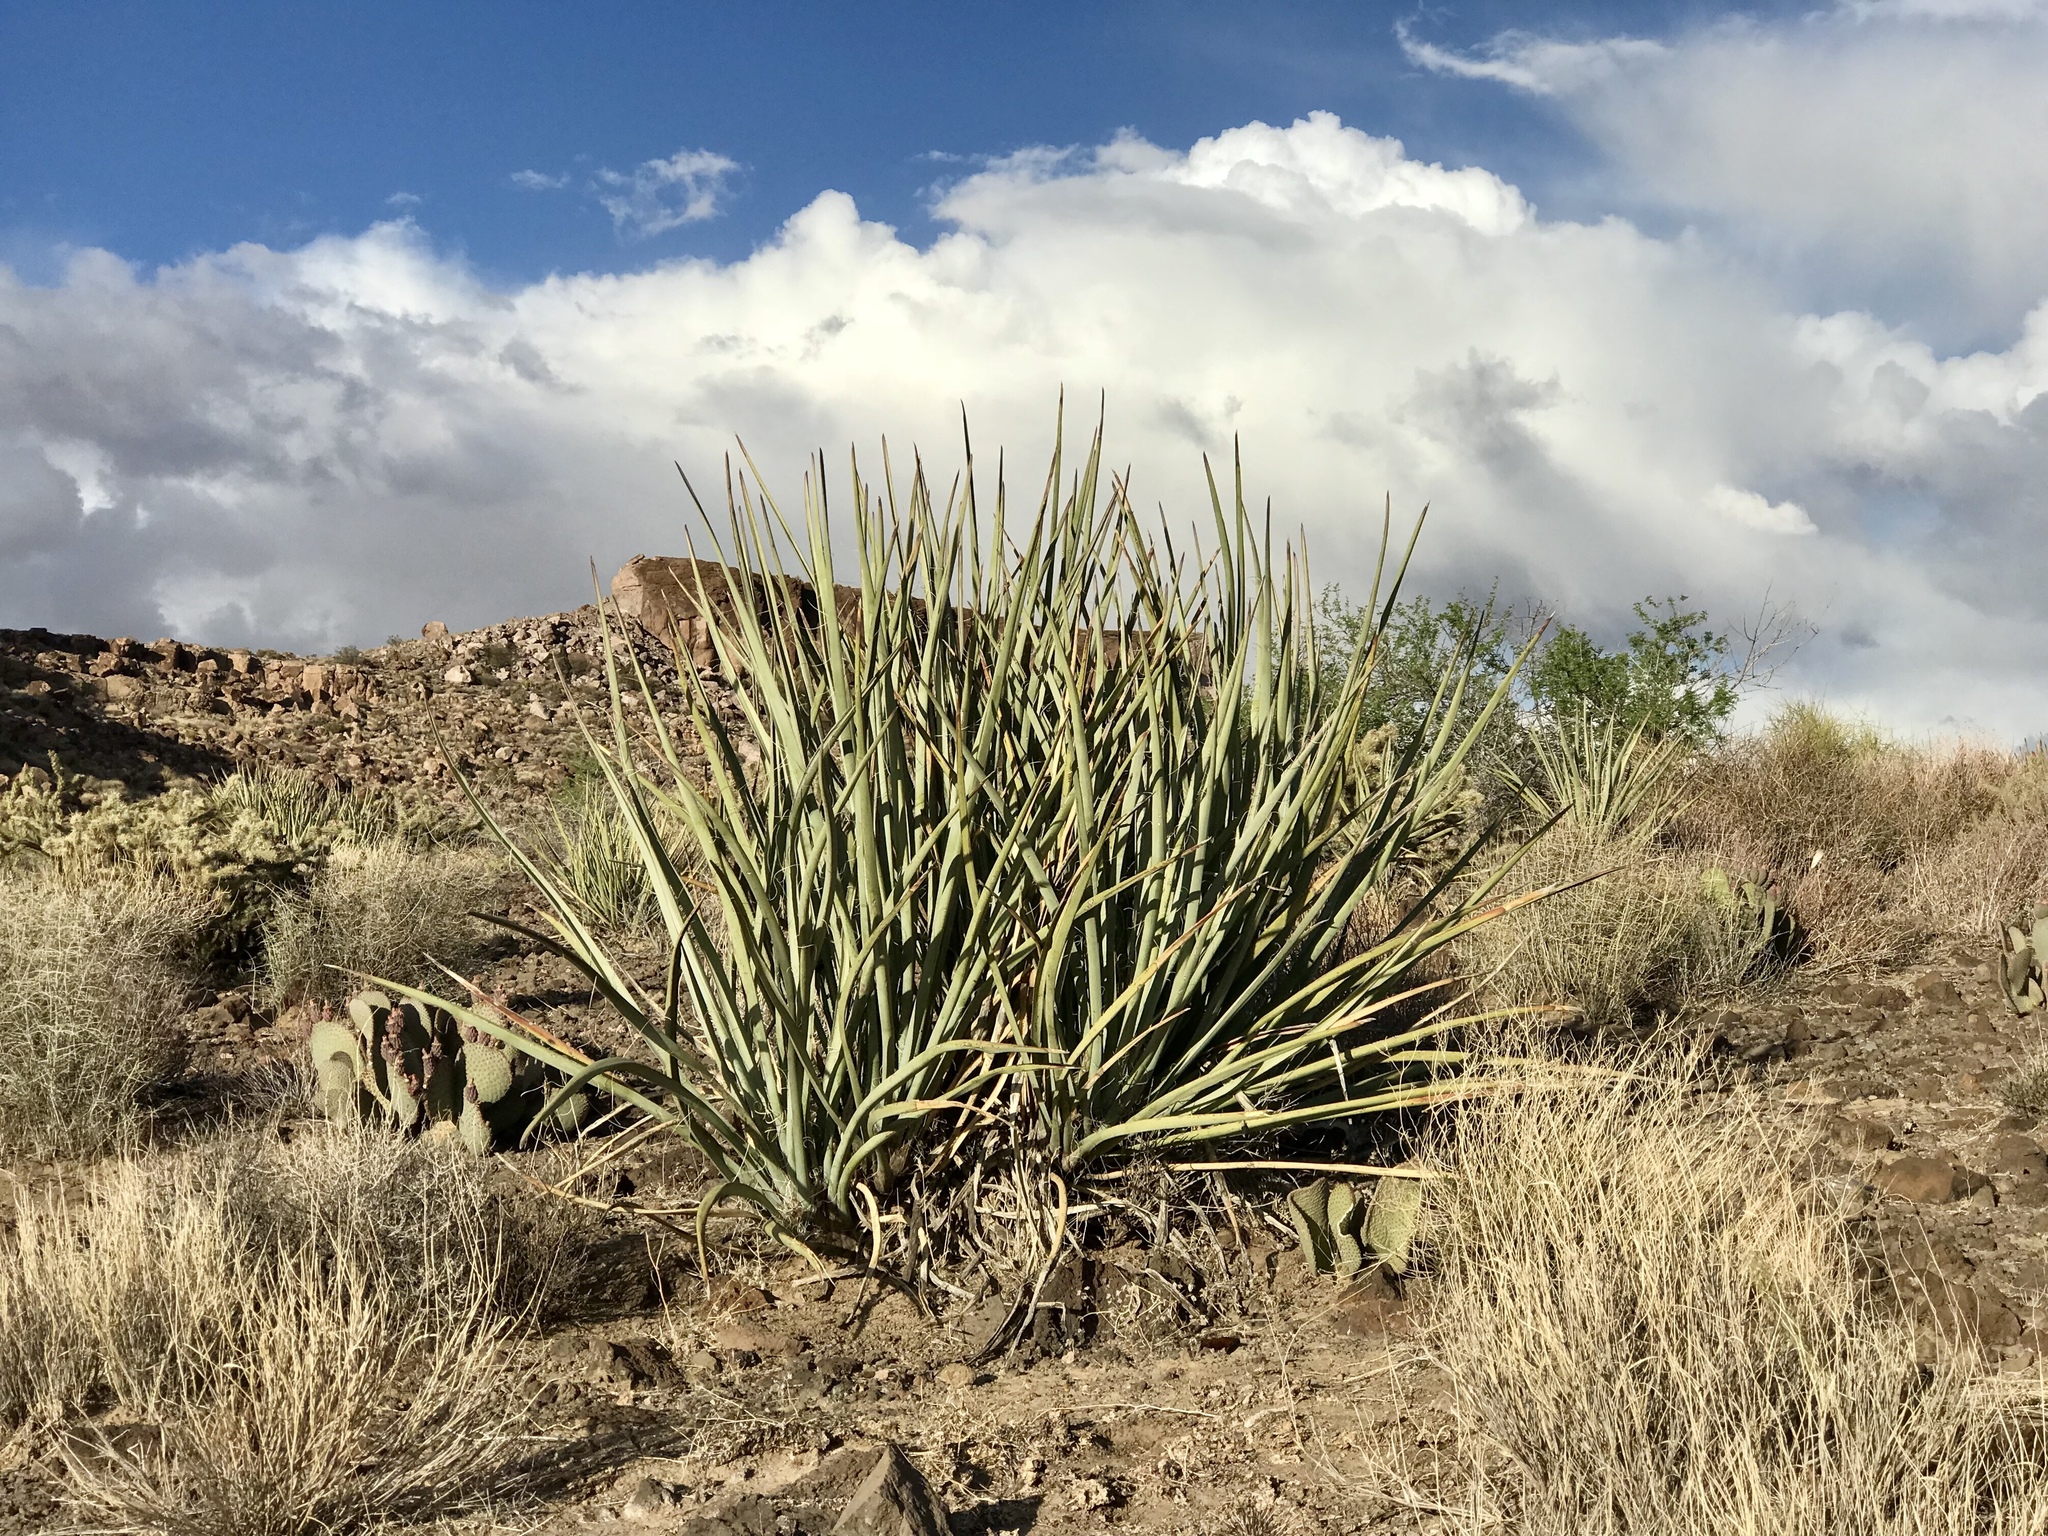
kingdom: Plantae
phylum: Tracheophyta
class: Liliopsida
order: Asparagales
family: Asparagaceae
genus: Yucca
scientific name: Yucca baccata
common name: Banana yucca
